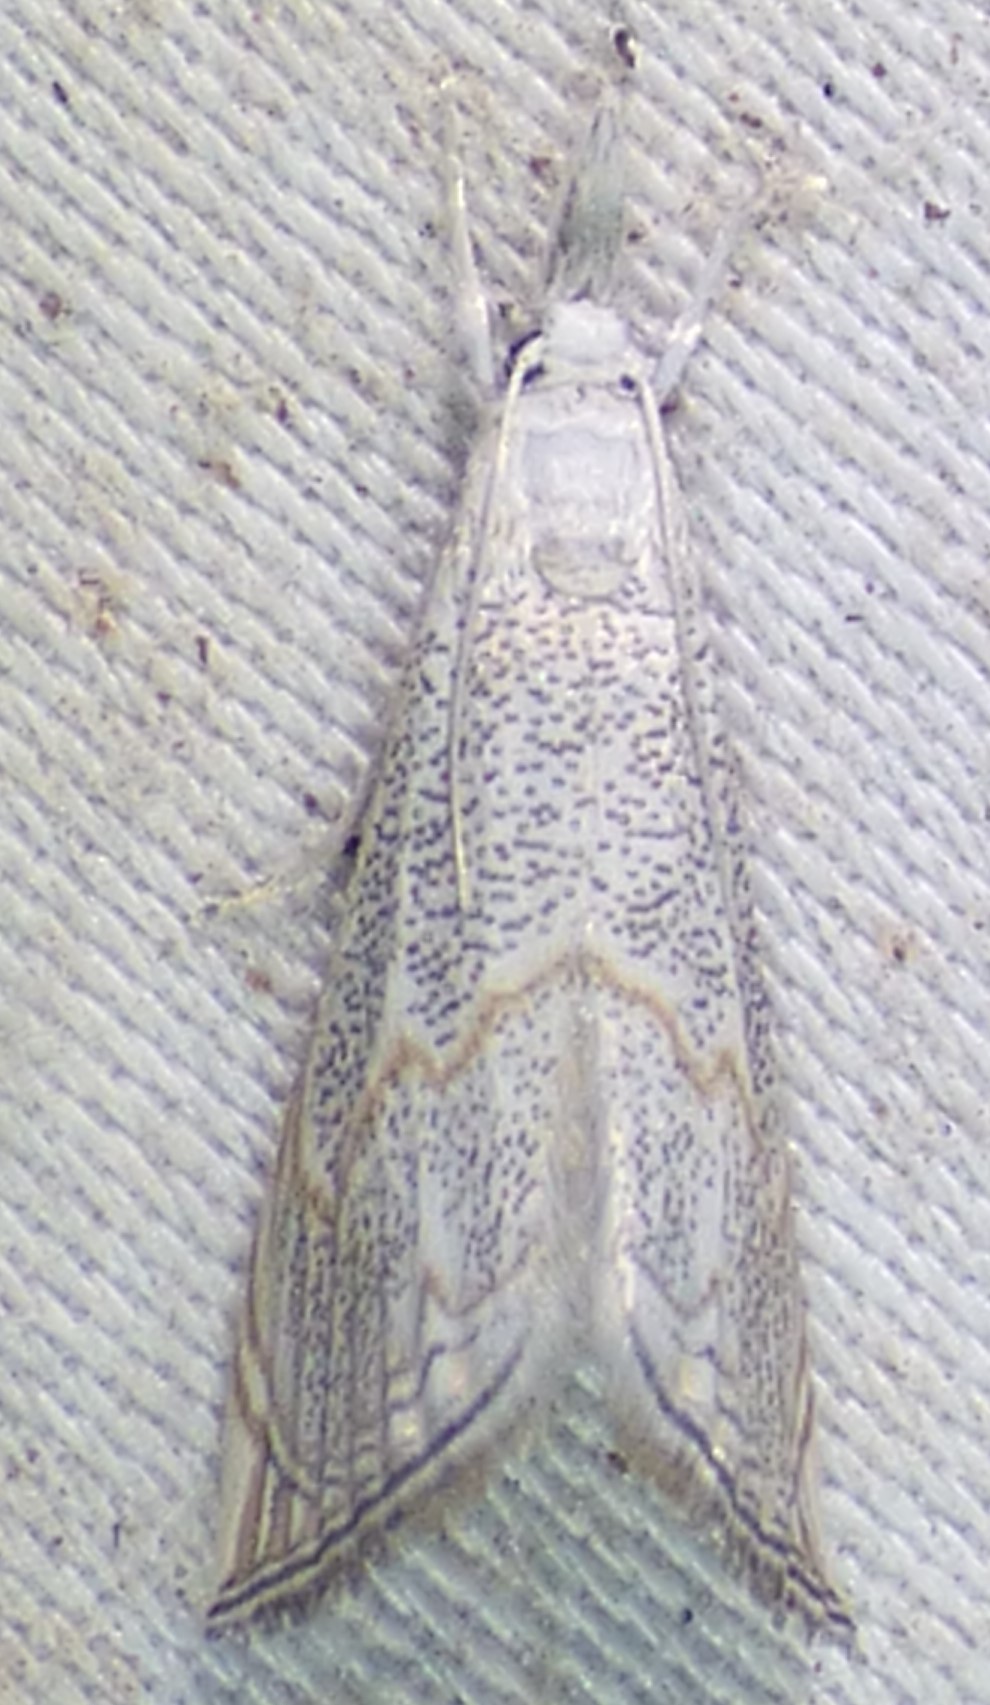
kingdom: Animalia
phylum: Arthropoda
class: Insecta
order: Lepidoptera
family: Crambidae
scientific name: Crambidae
